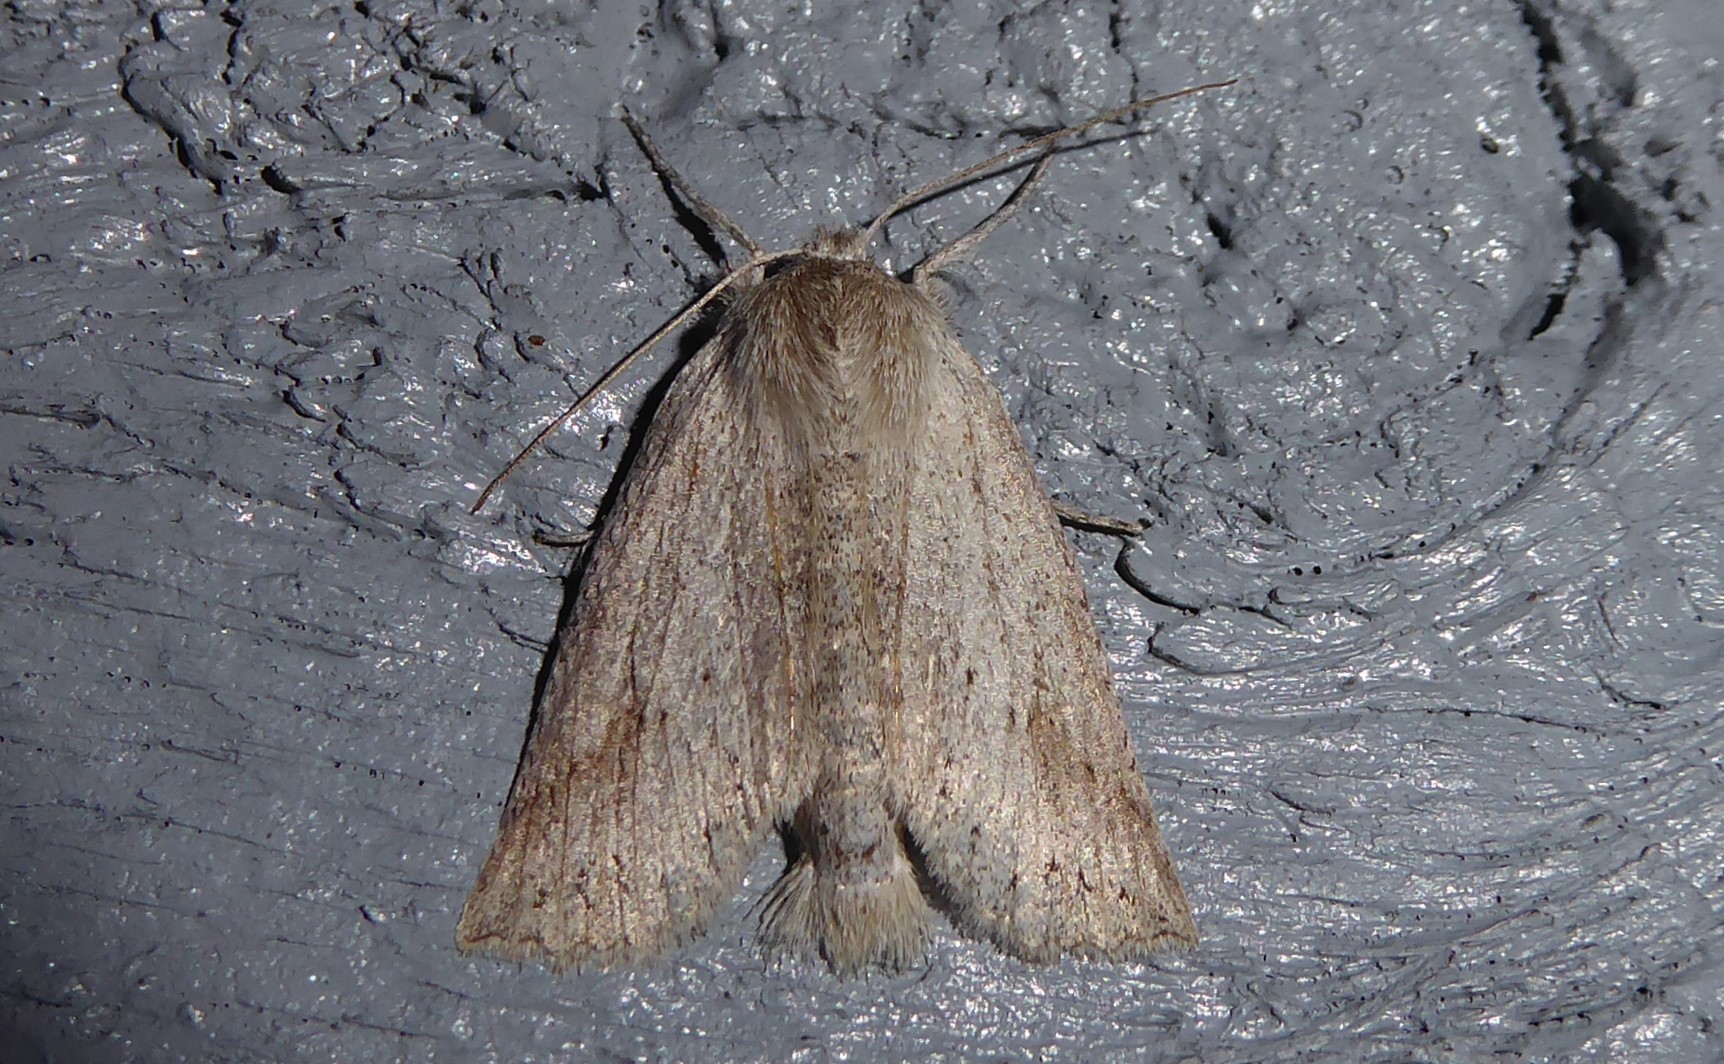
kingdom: Animalia
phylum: Arthropoda
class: Insecta
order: Lepidoptera
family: Geometridae
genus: Declana
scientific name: Declana leptomera
